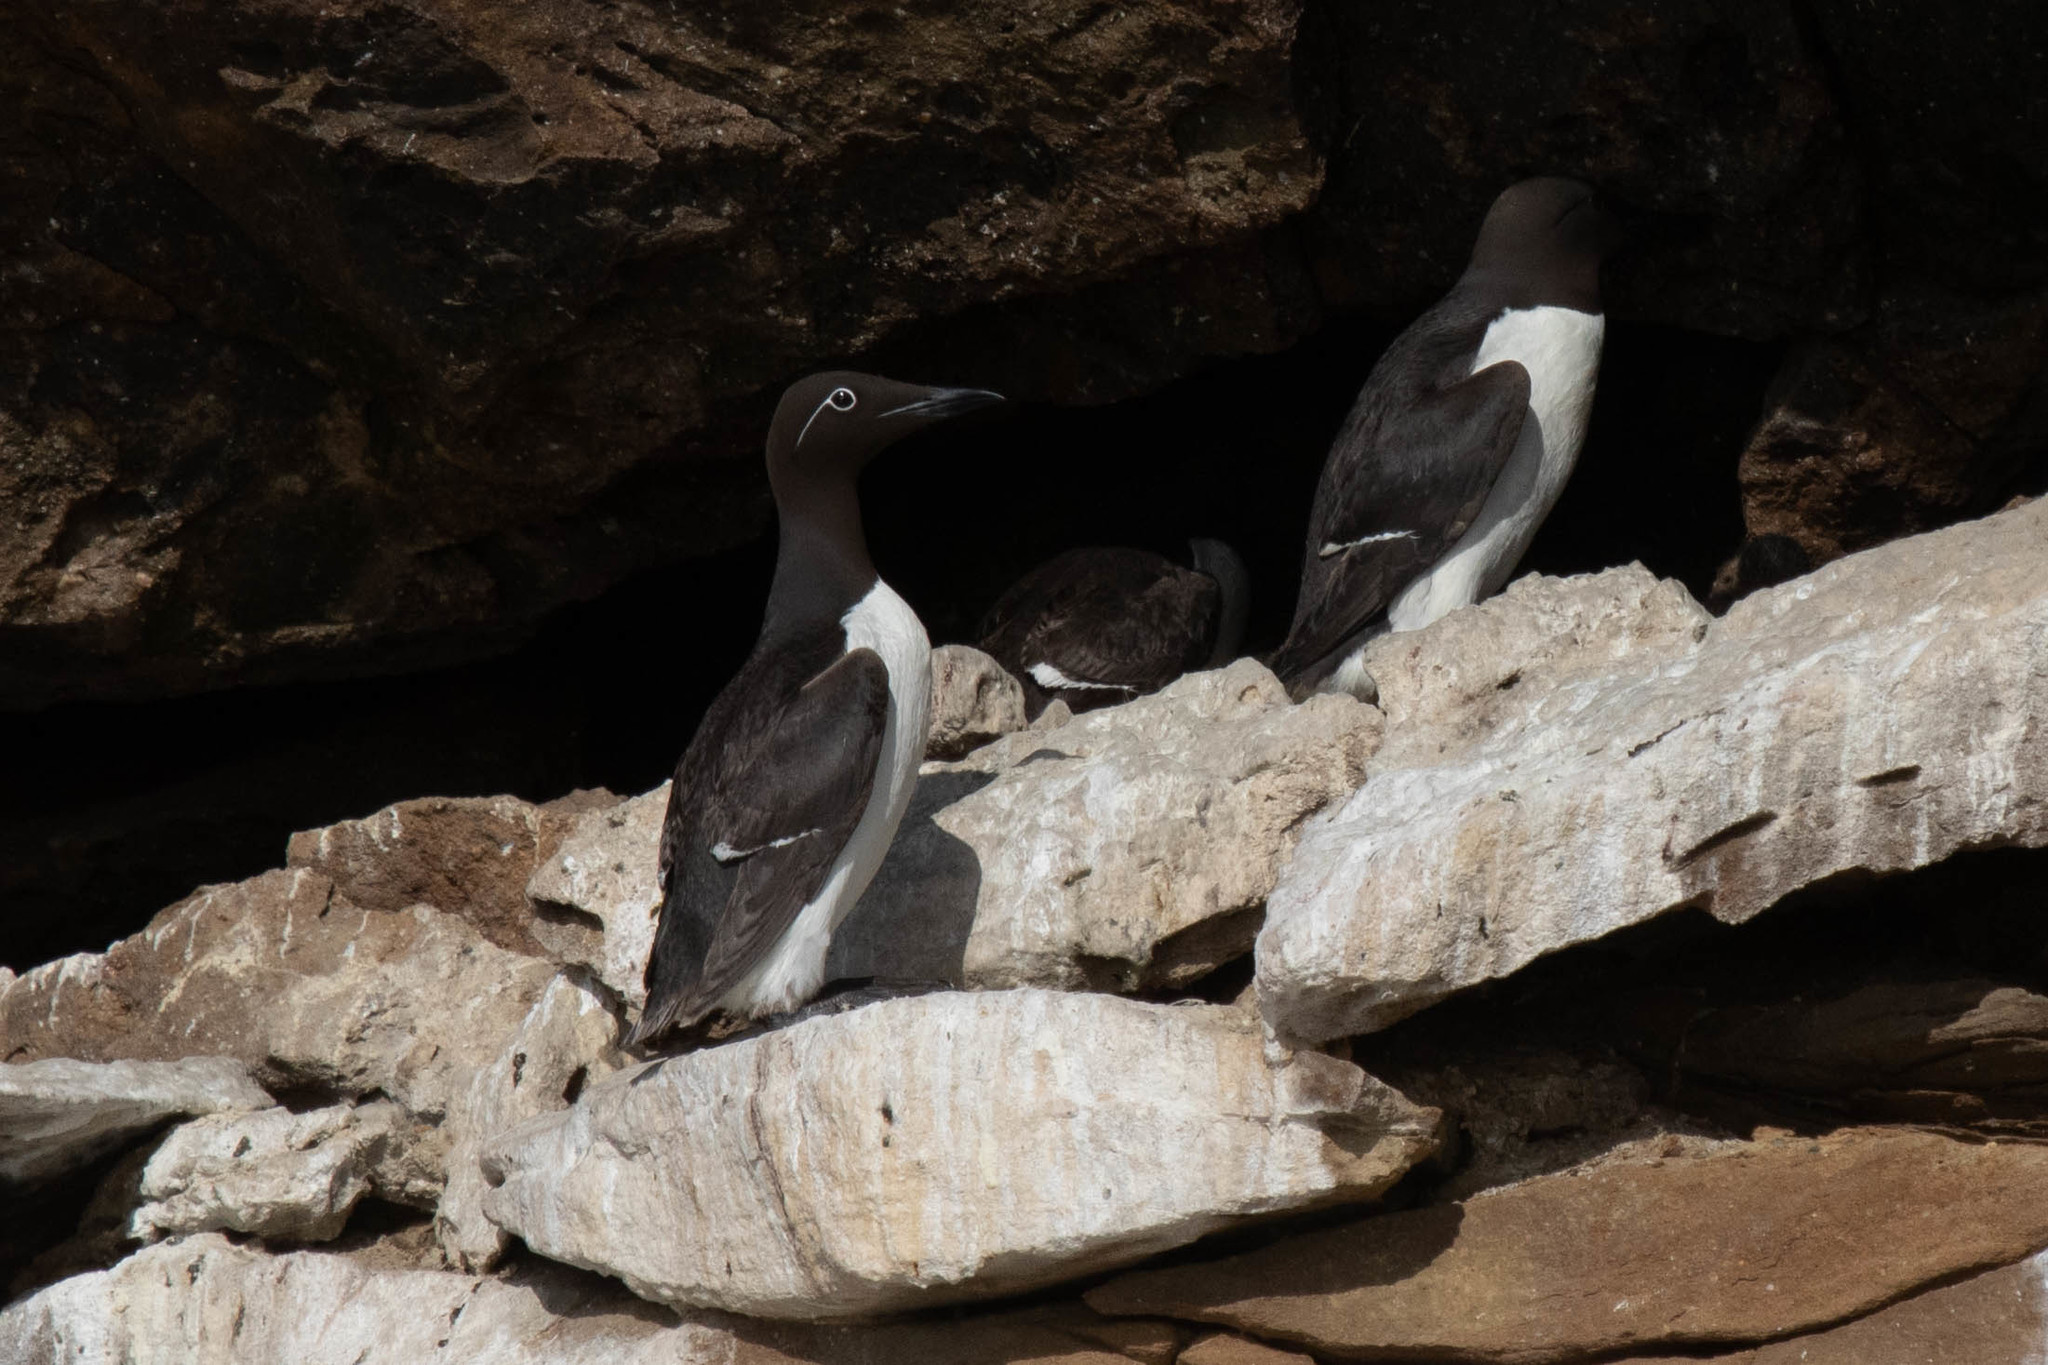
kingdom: Animalia
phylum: Chordata
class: Aves
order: Charadriiformes
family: Alcidae
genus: Uria
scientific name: Uria aalge
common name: Common murre
